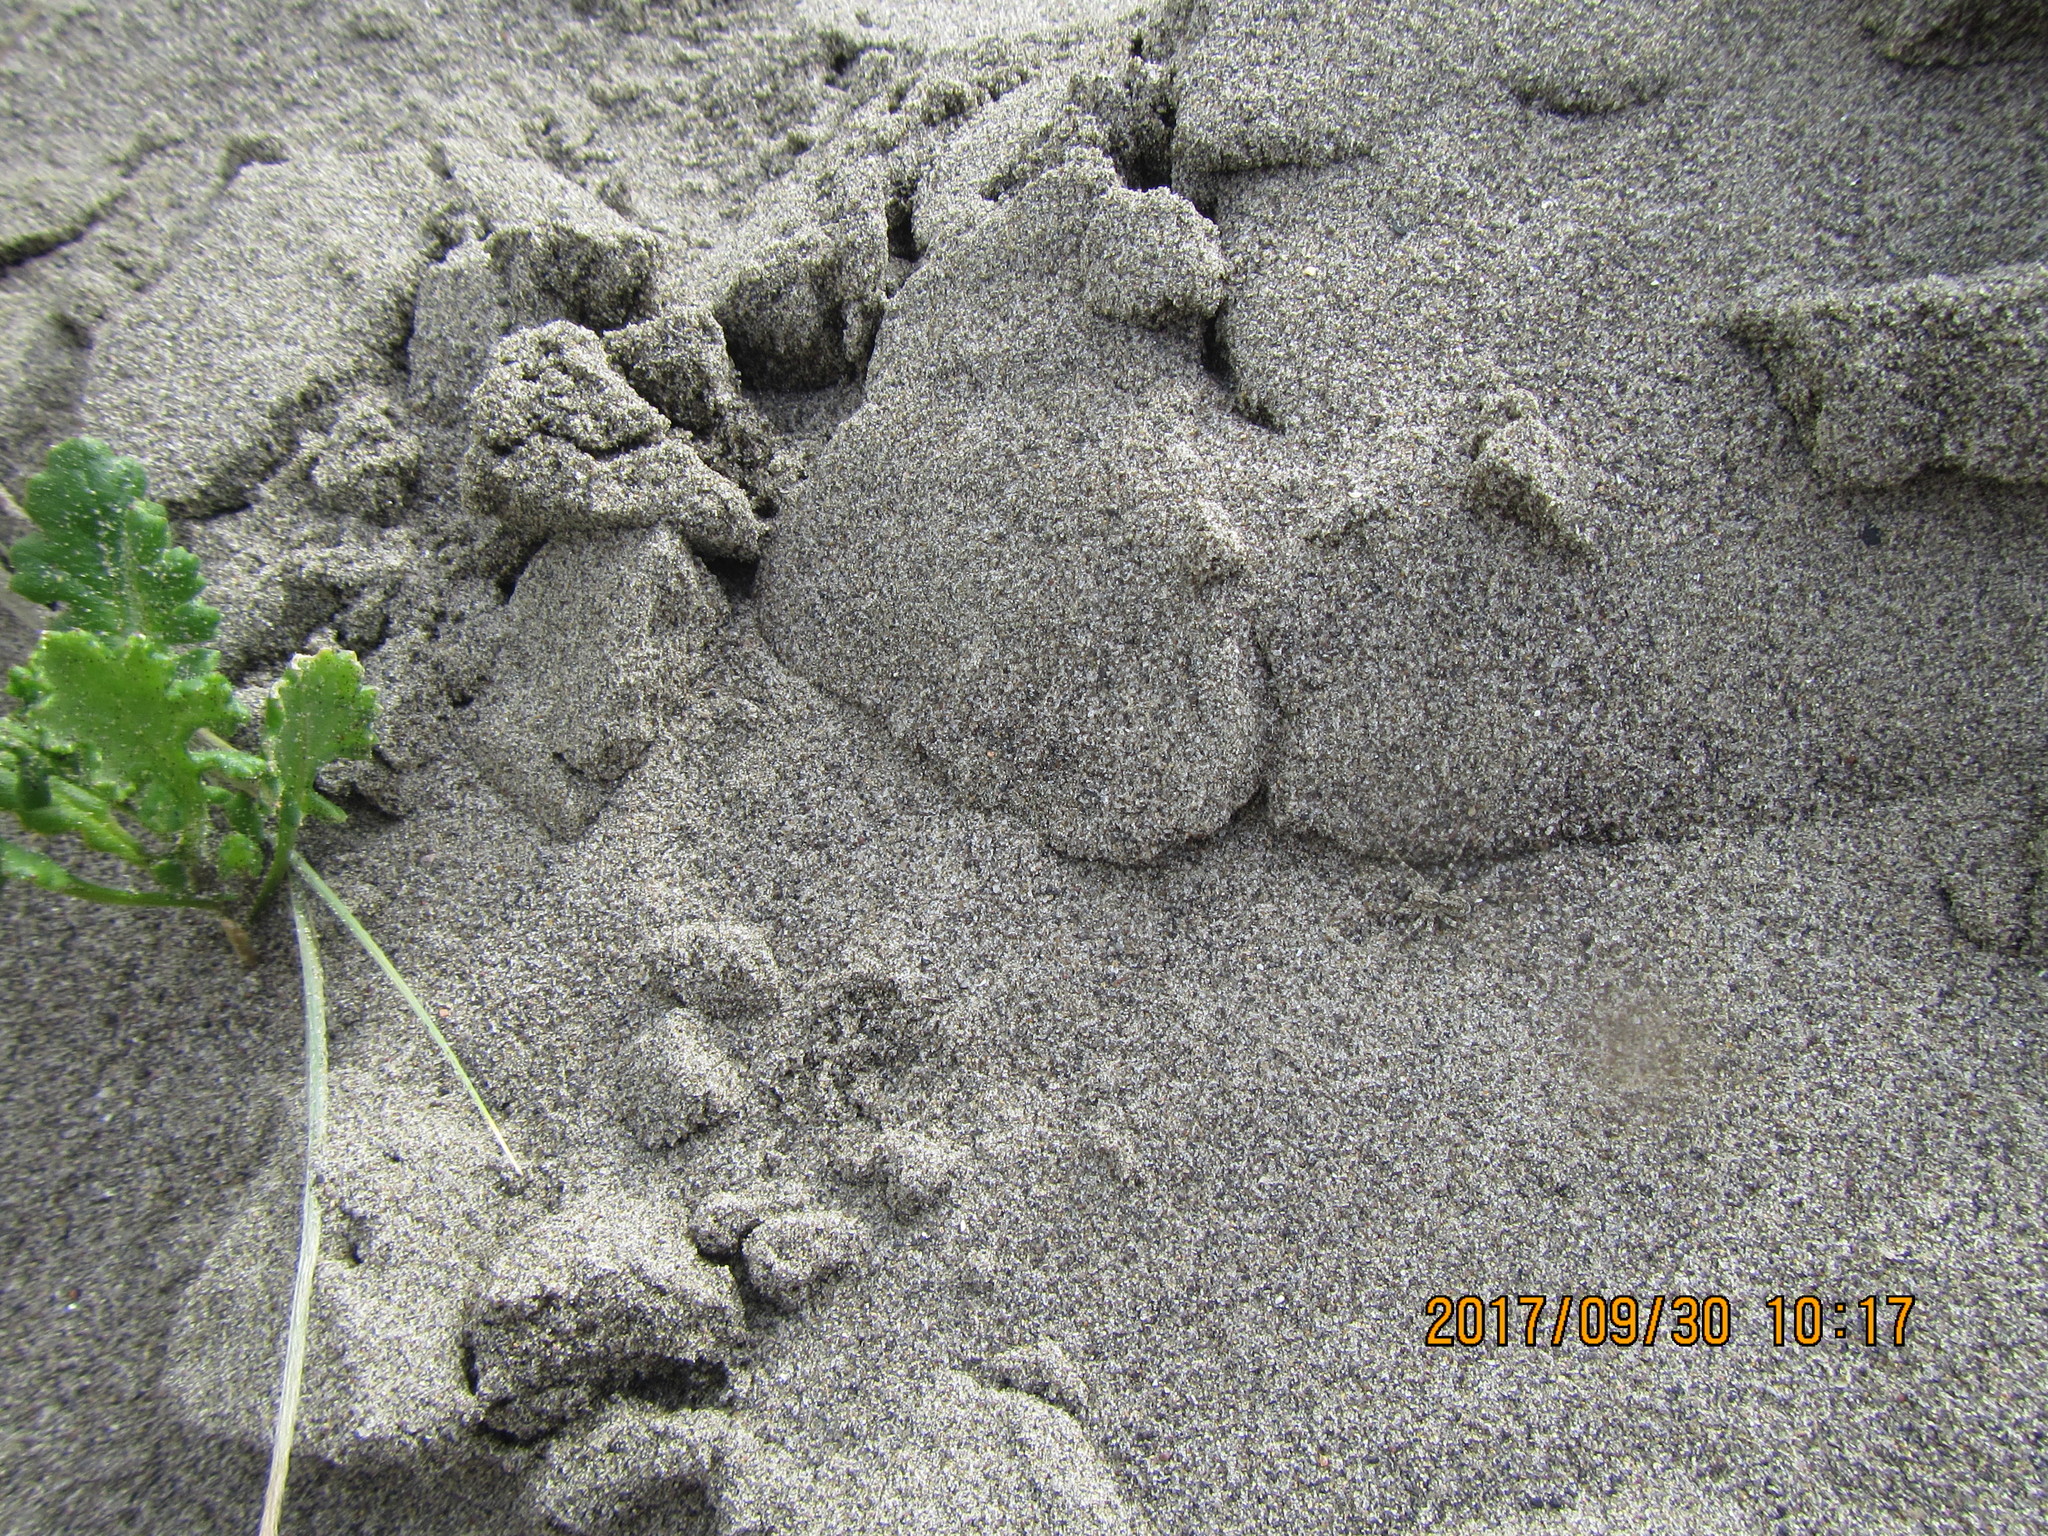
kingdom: Animalia
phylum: Arthropoda
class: Arachnida
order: Araneae
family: Lycosidae
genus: Anoteropsis
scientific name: Anoteropsis litoralis
